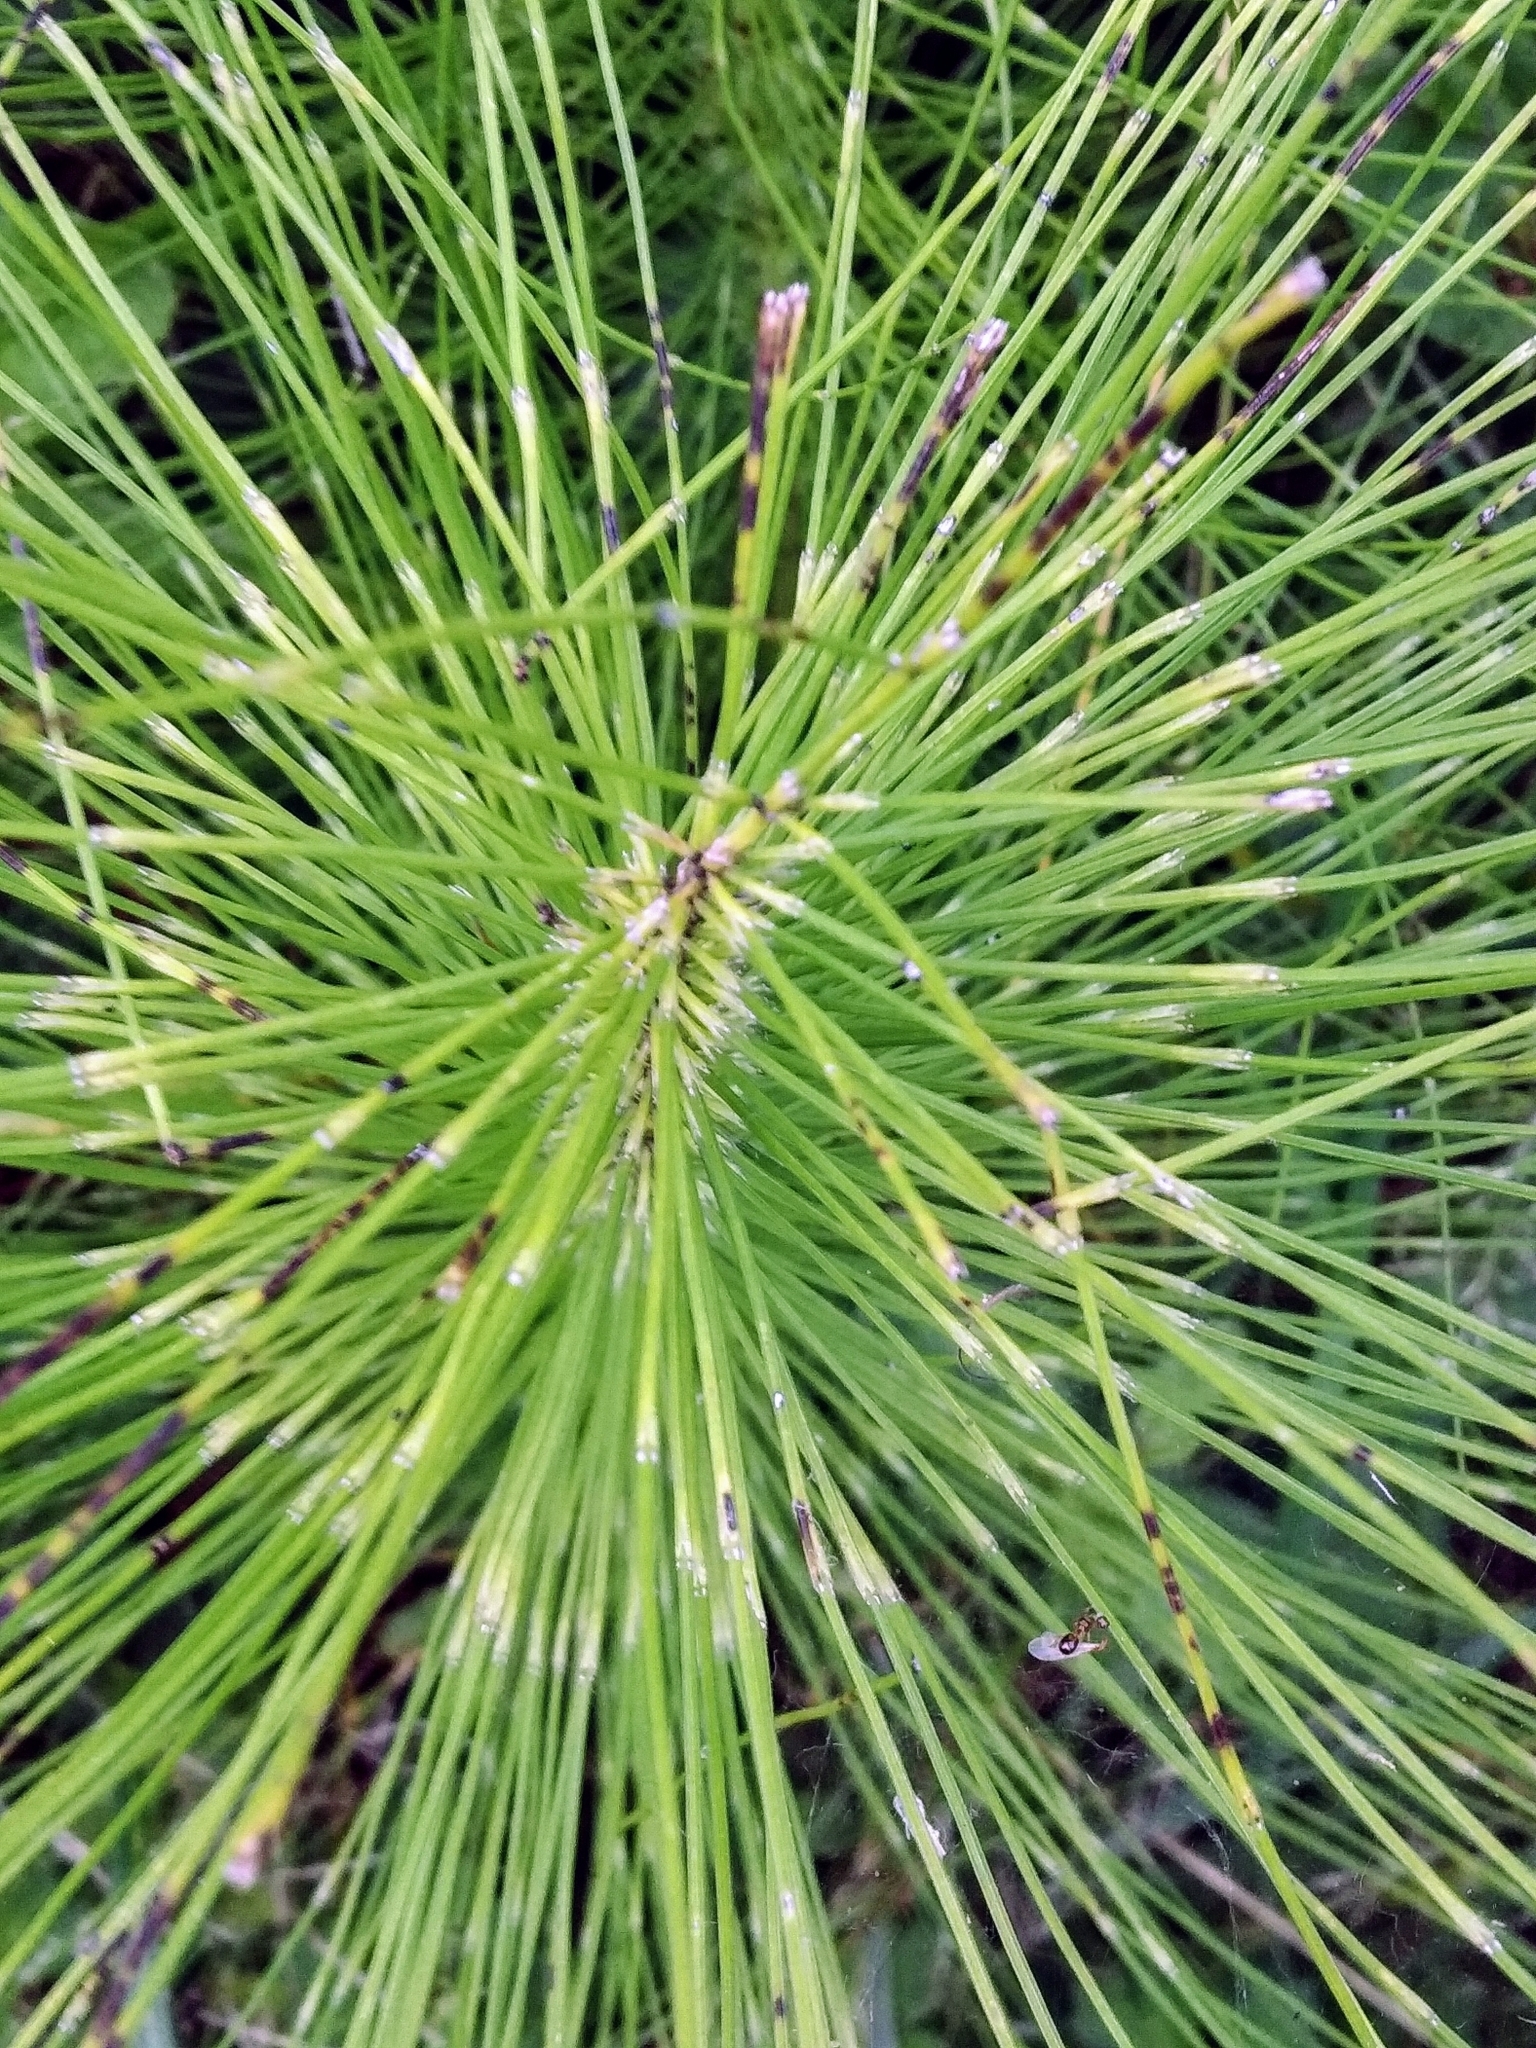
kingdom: Plantae
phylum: Tracheophyta
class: Polypodiopsida
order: Equisetales
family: Equisetaceae
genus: Equisetum
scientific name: Equisetum telmateia
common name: Great horsetail
